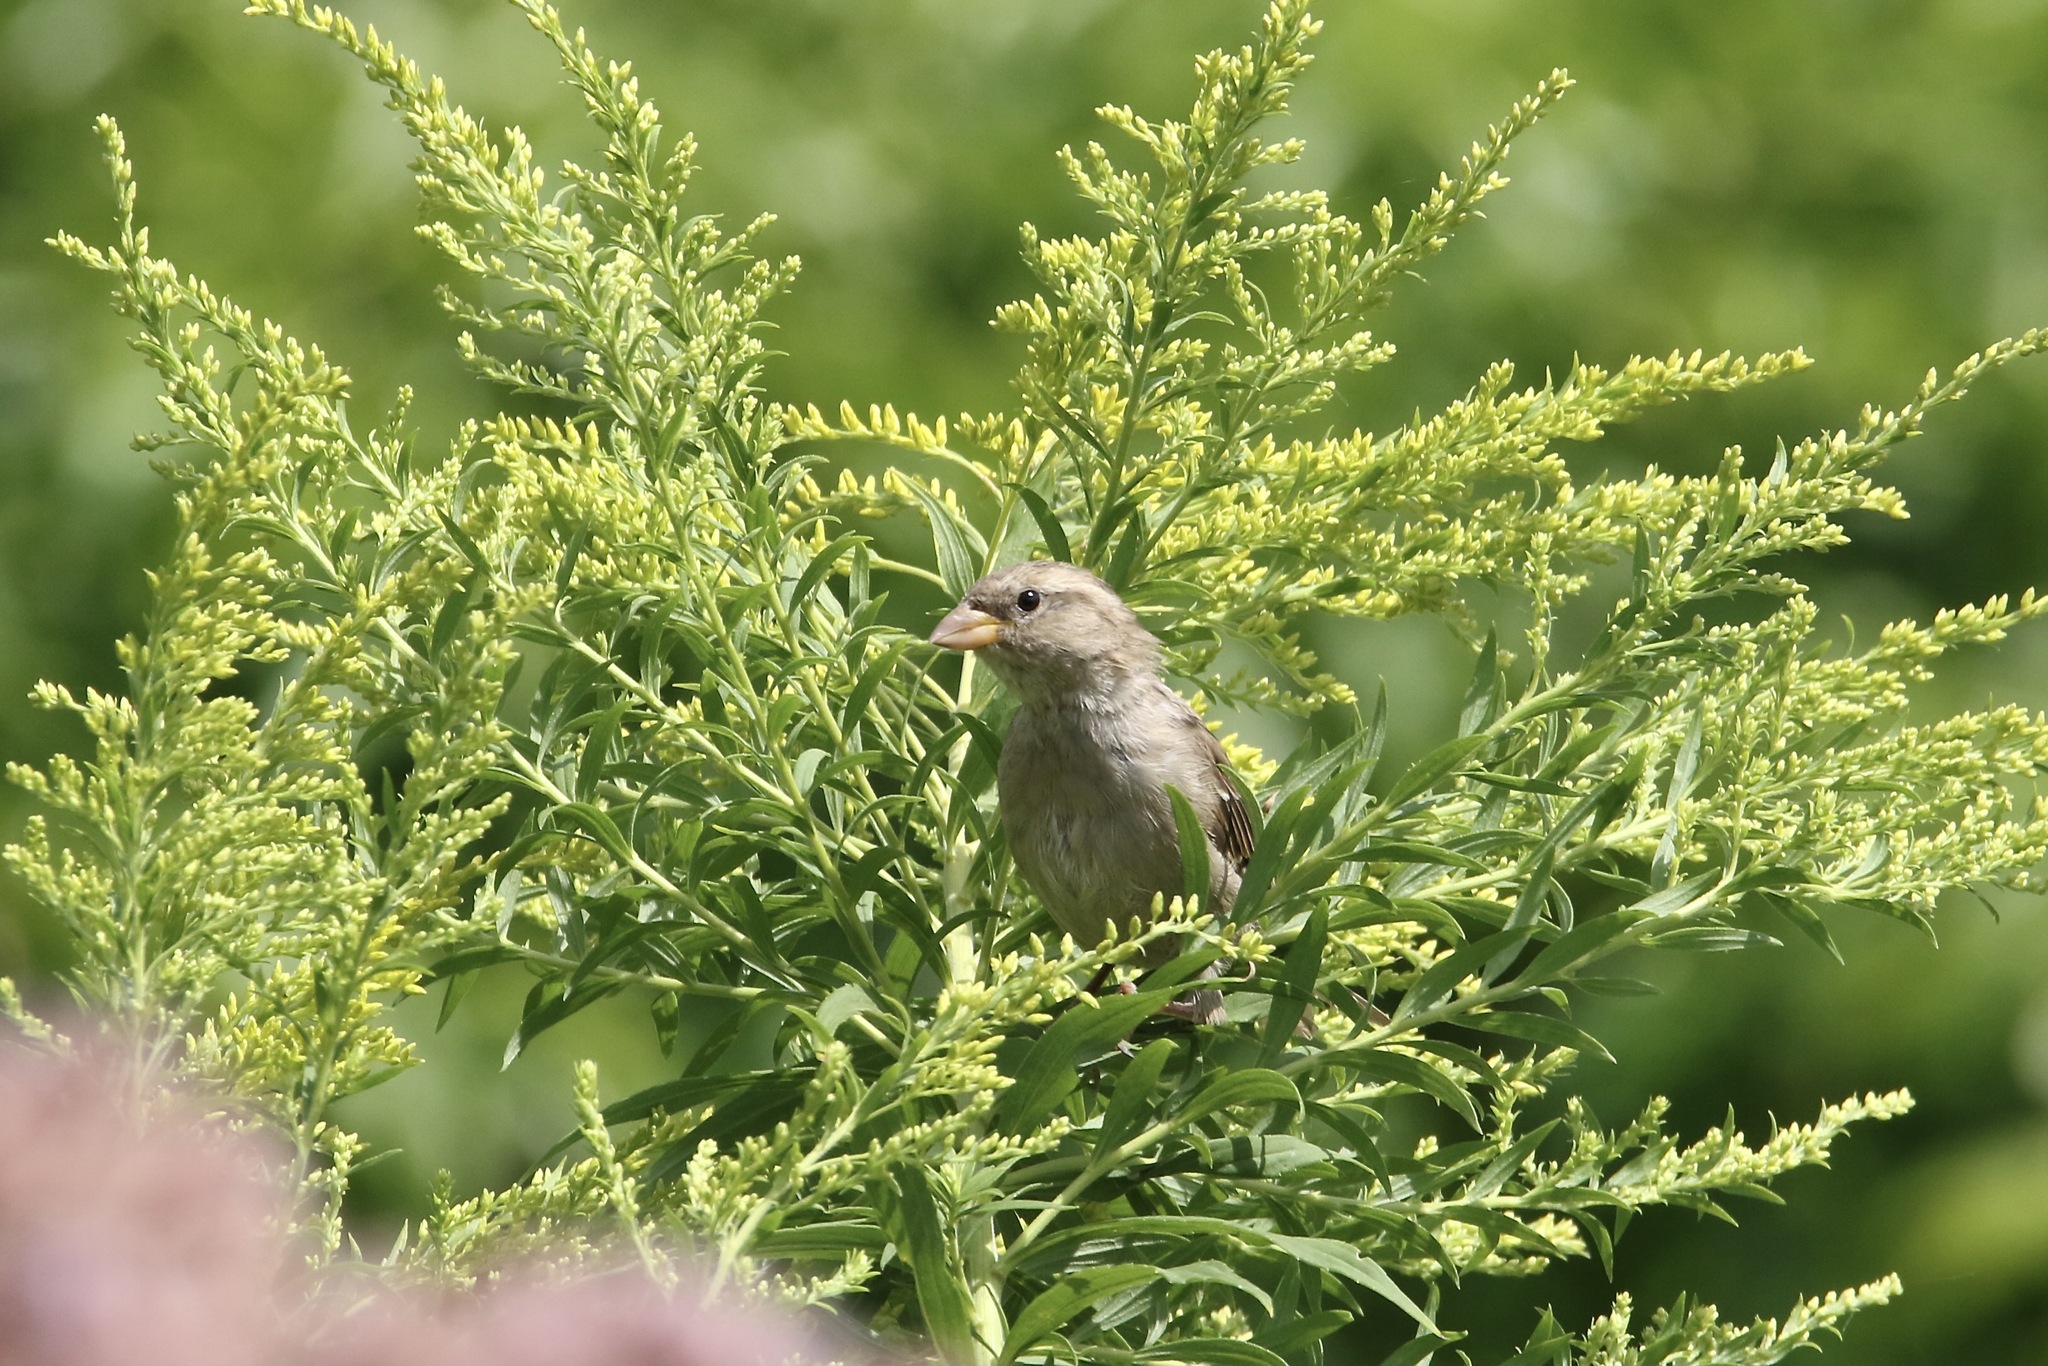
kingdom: Animalia
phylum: Chordata
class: Aves
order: Passeriformes
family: Passeridae
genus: Passer
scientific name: Passer domesticus
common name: House sparrow
